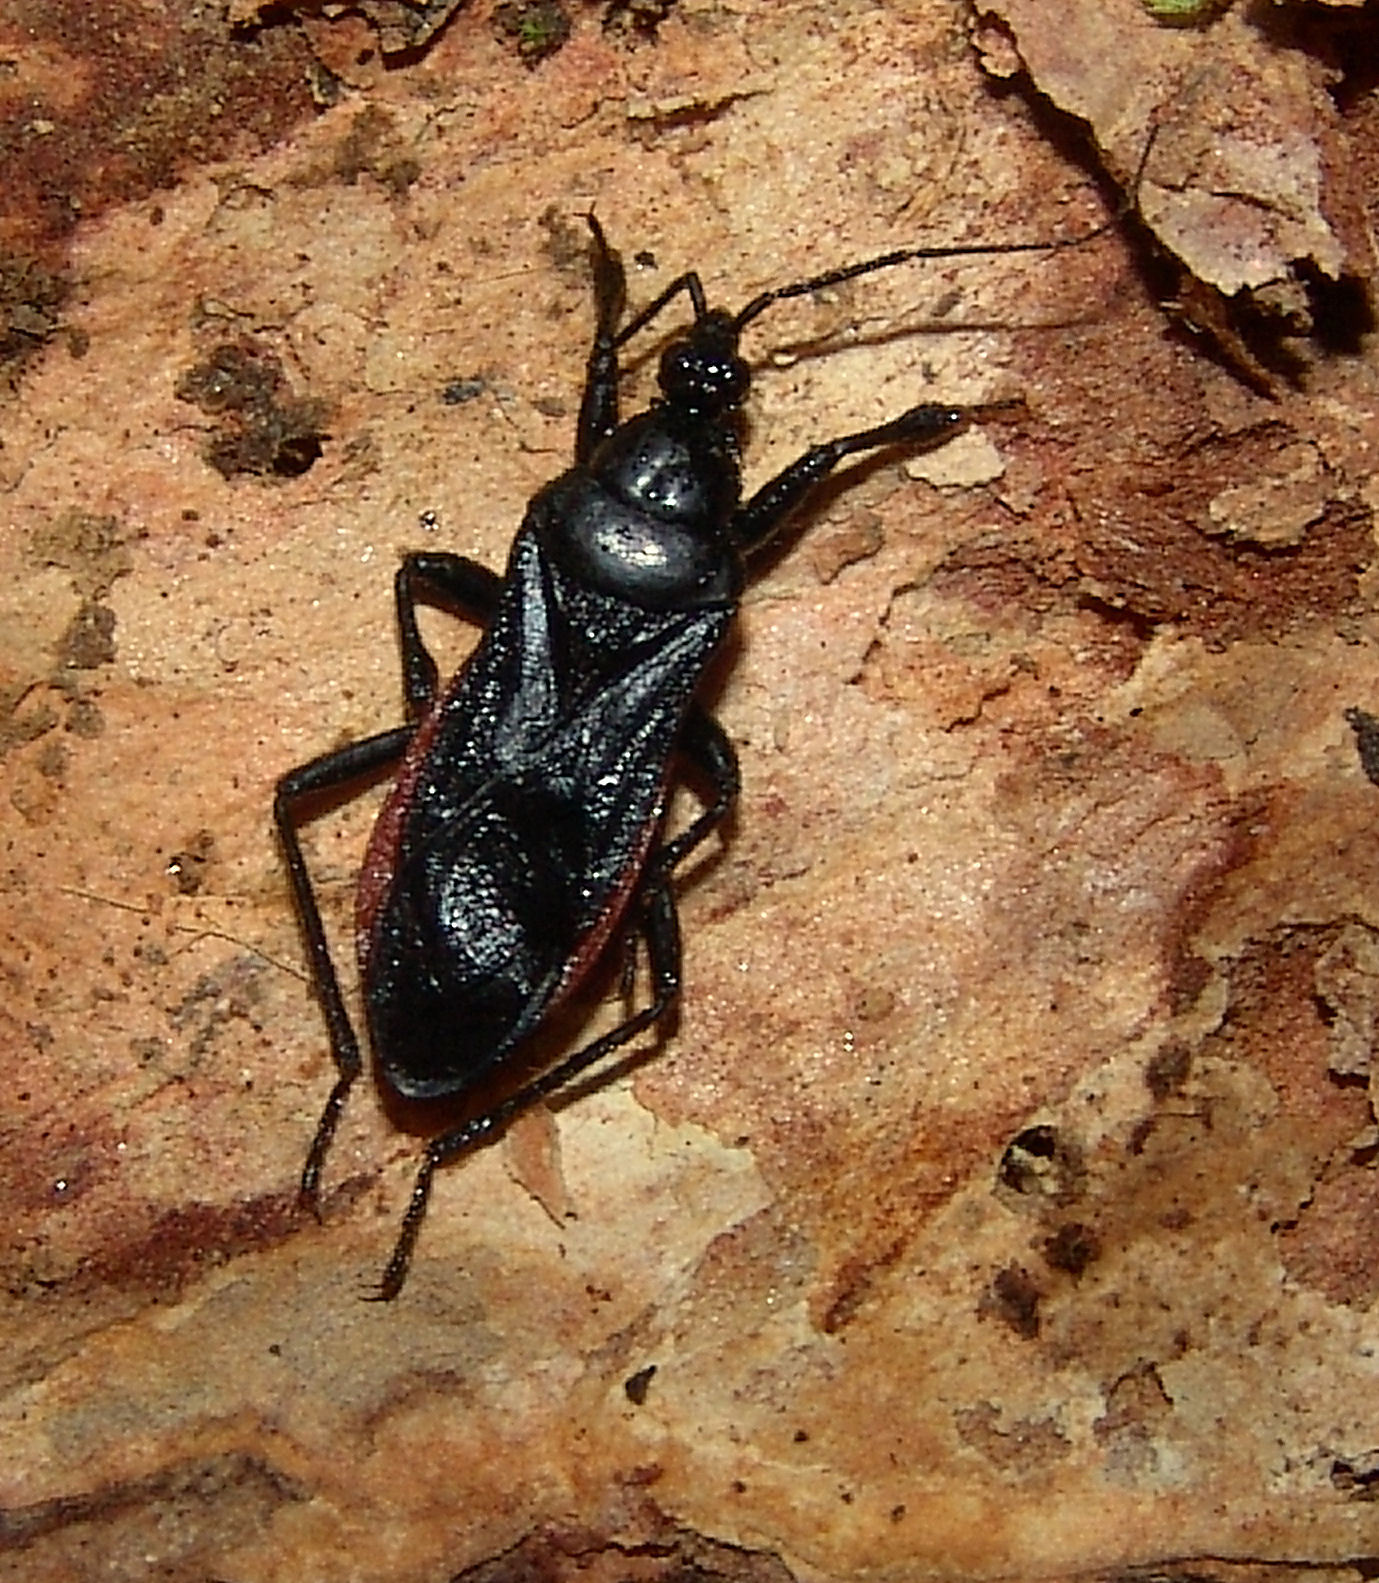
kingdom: Animalia
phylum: Arthropoda
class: Insecta
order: Hemiptera
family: Reduviidae
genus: Melanolestes
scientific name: Melanolestes picipes
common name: Assassin bug
